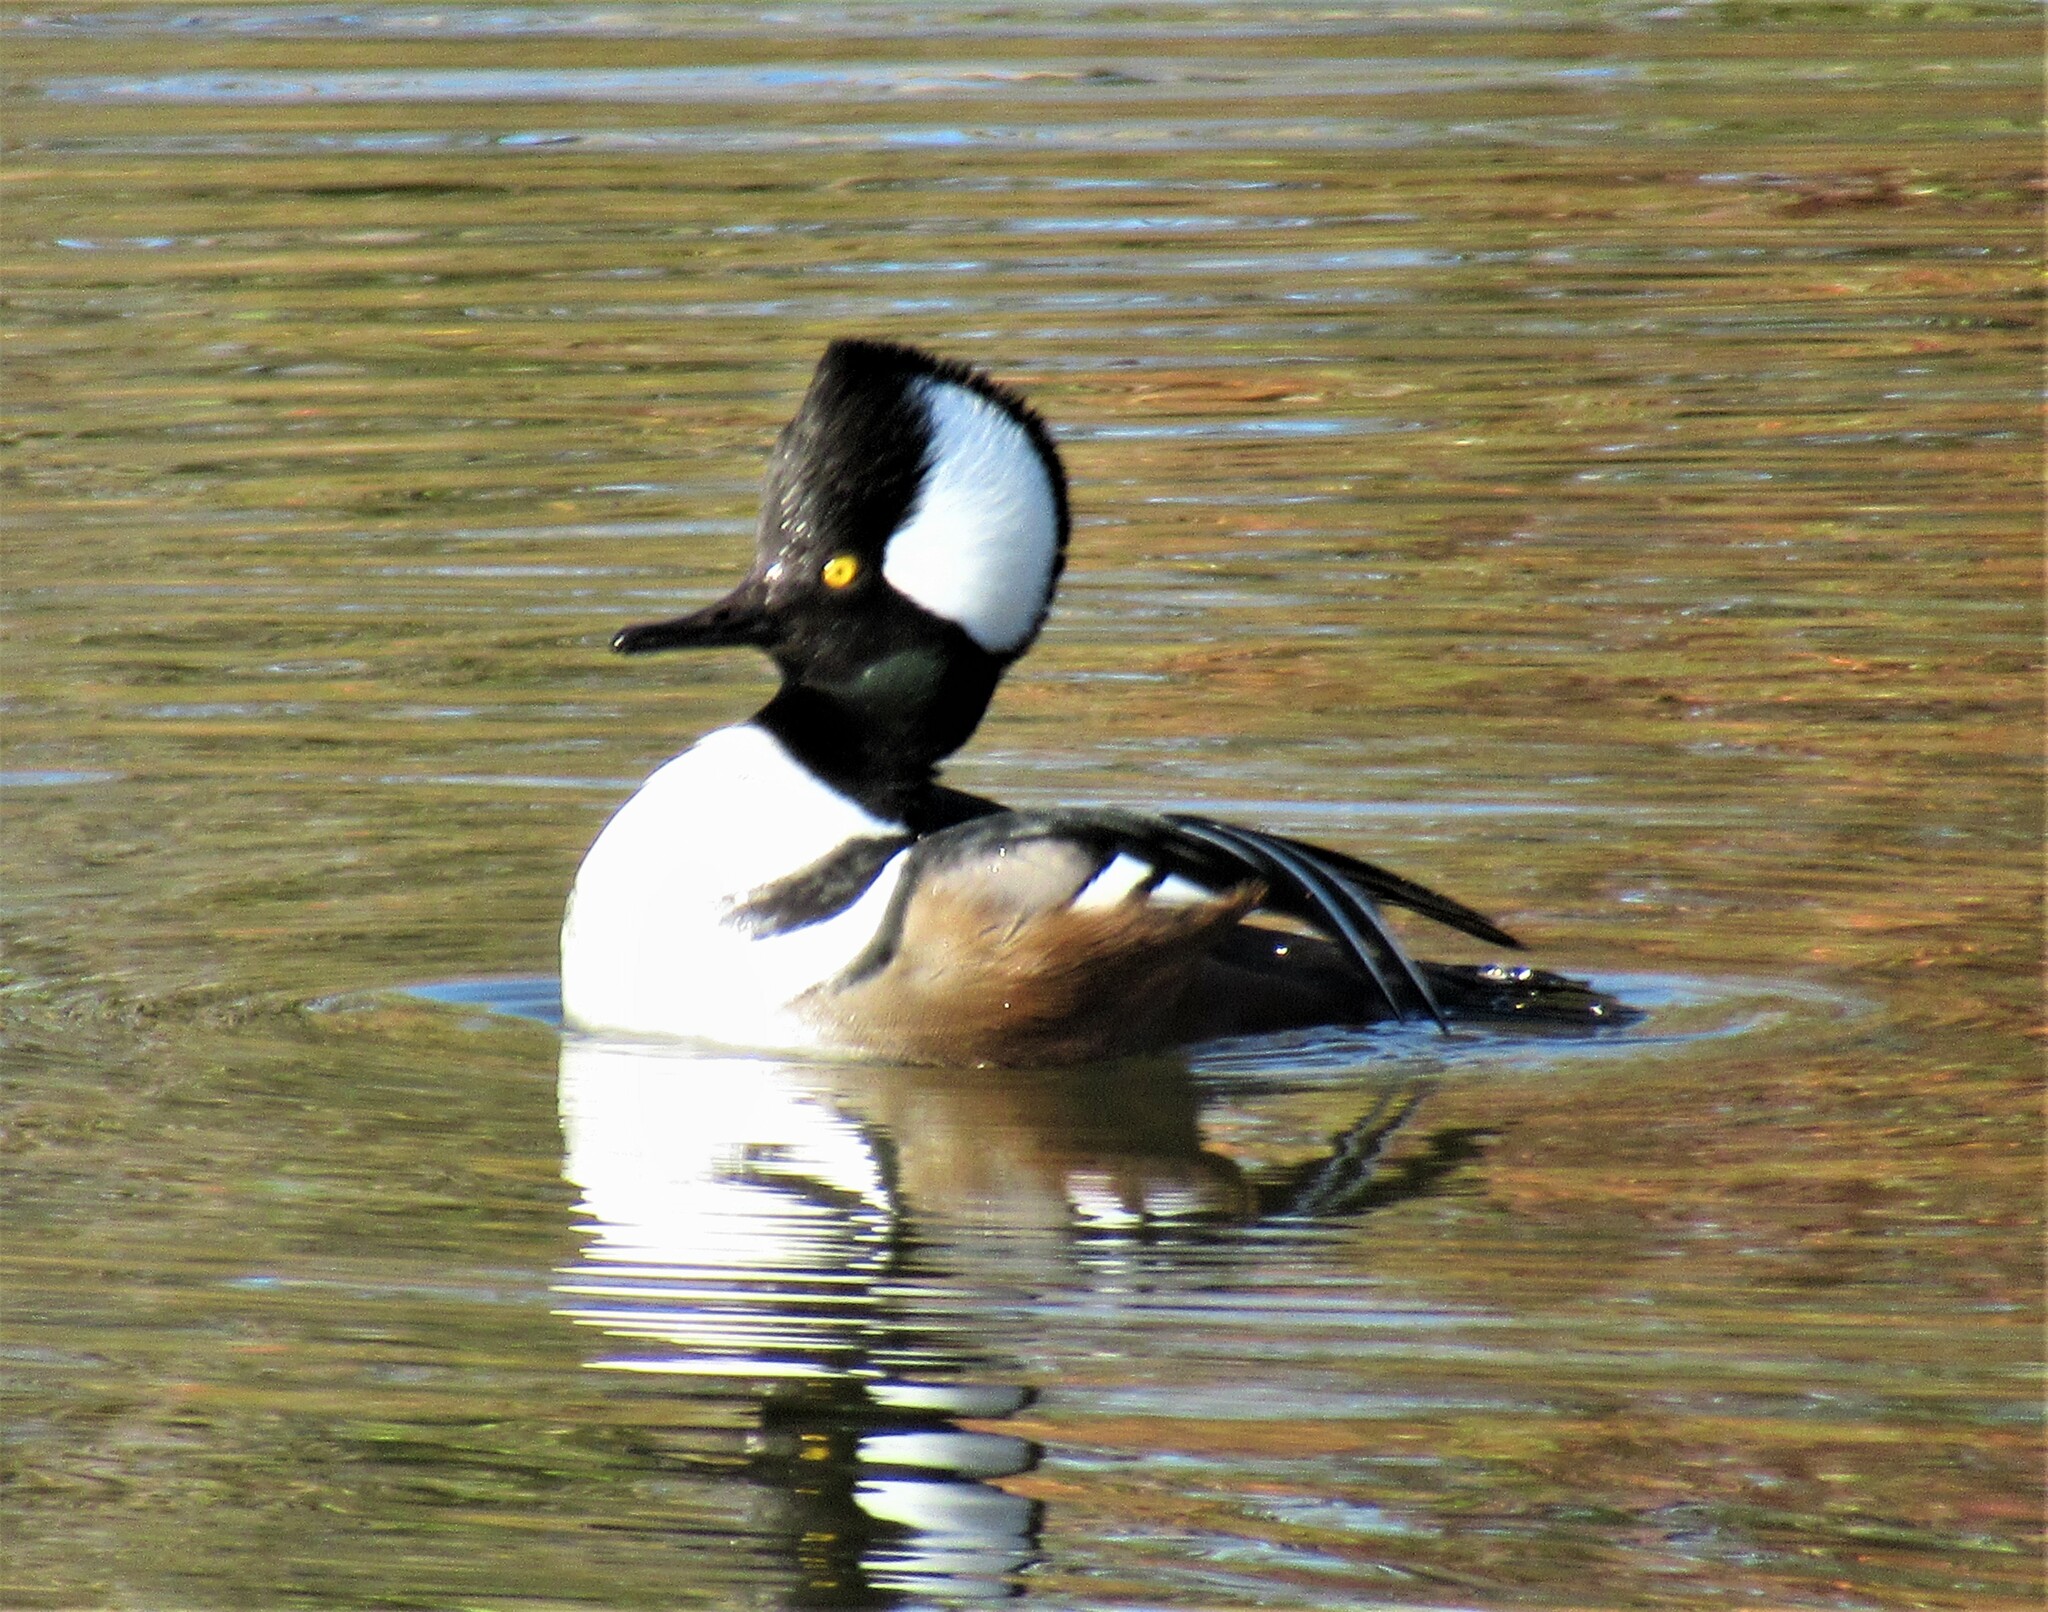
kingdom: Animalia
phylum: Chordata
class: Aves
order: Anseriformes
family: Anatidae
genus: Lophodytes
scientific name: Lophodytes cucullatus
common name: Hooded merganser
